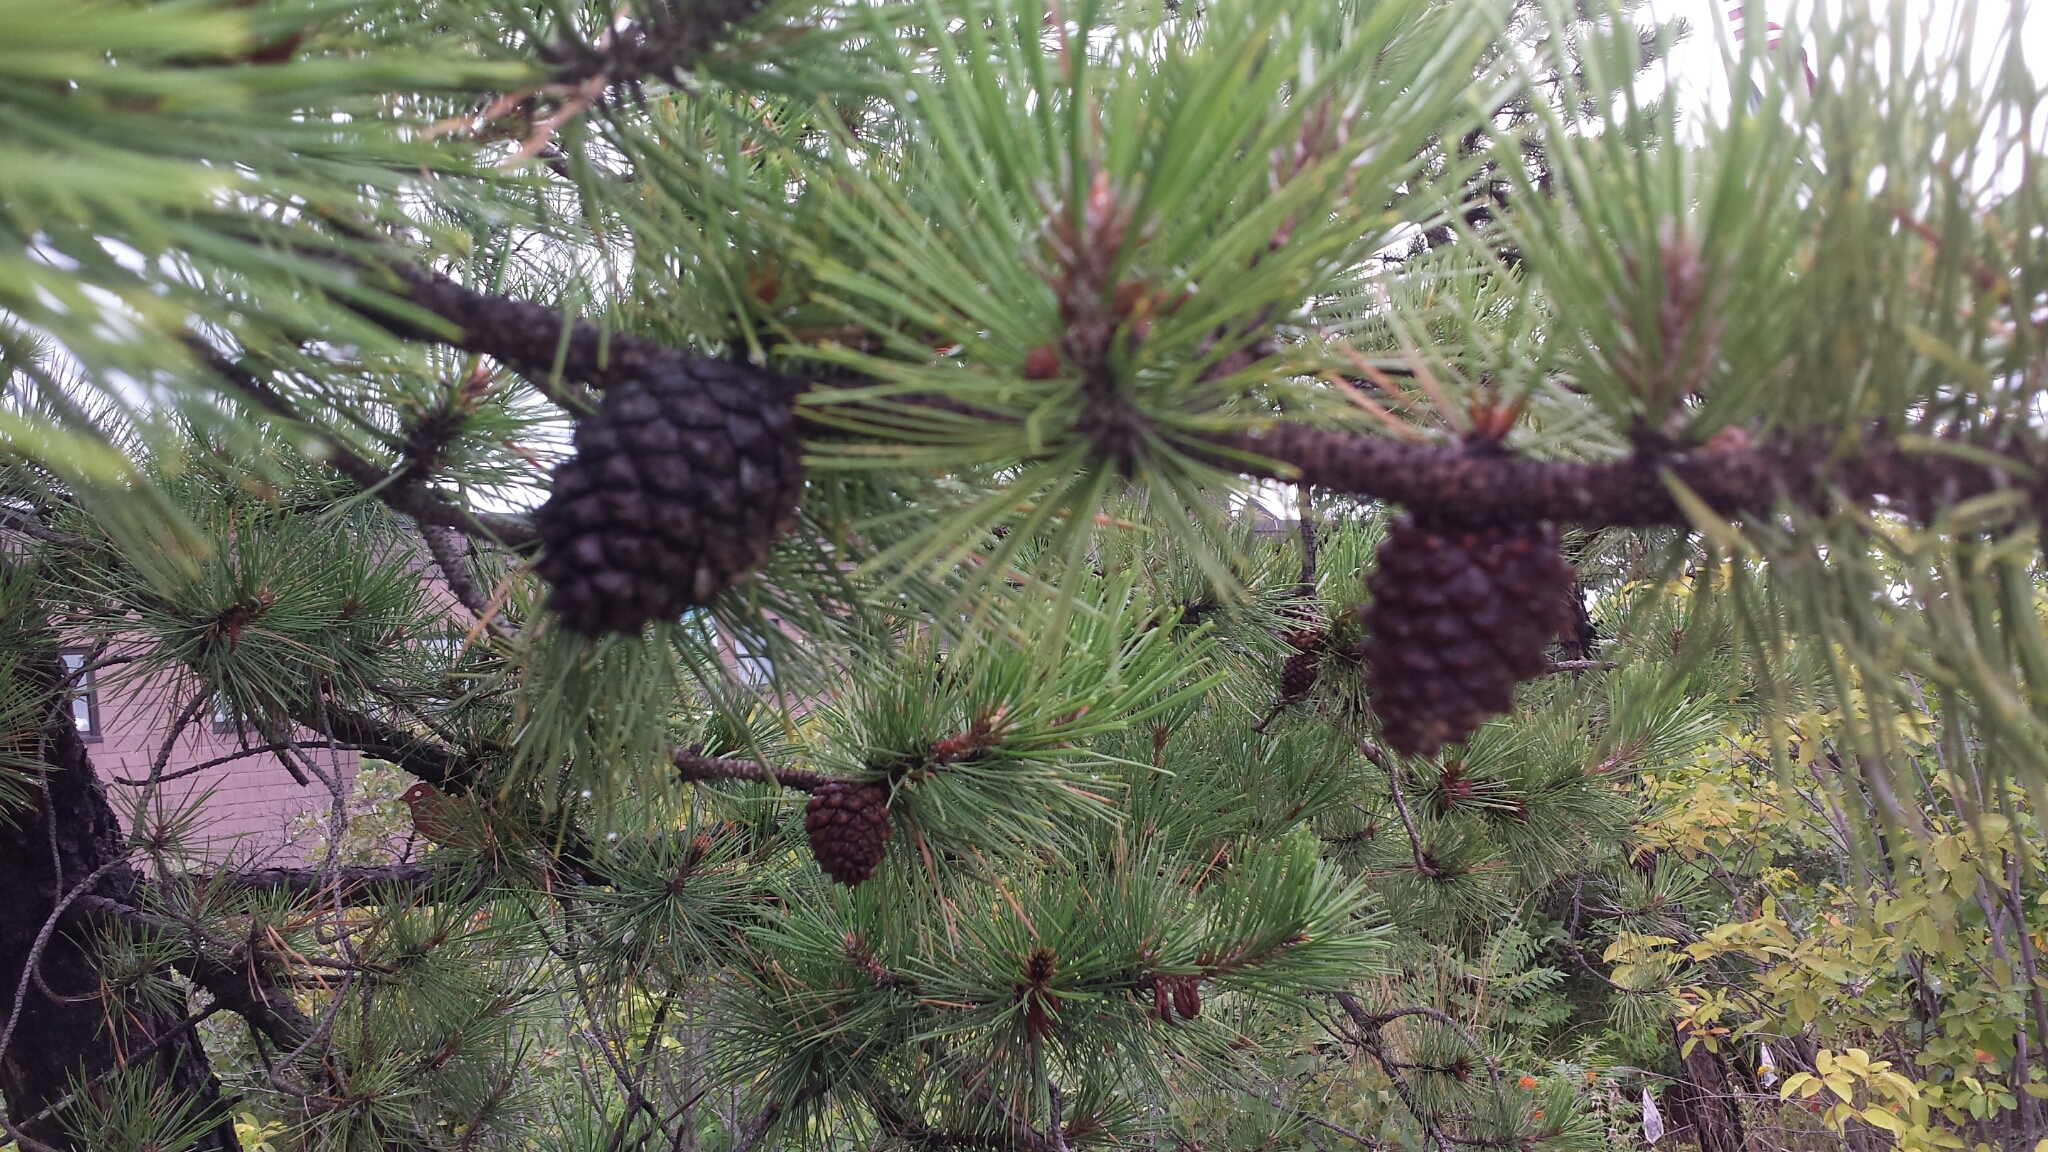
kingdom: Plantae
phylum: Tracheophyta
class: Pinopsida
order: Pinales
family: Pinaceae
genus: Pinus
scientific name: Pinus rigida
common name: Pitch pine
